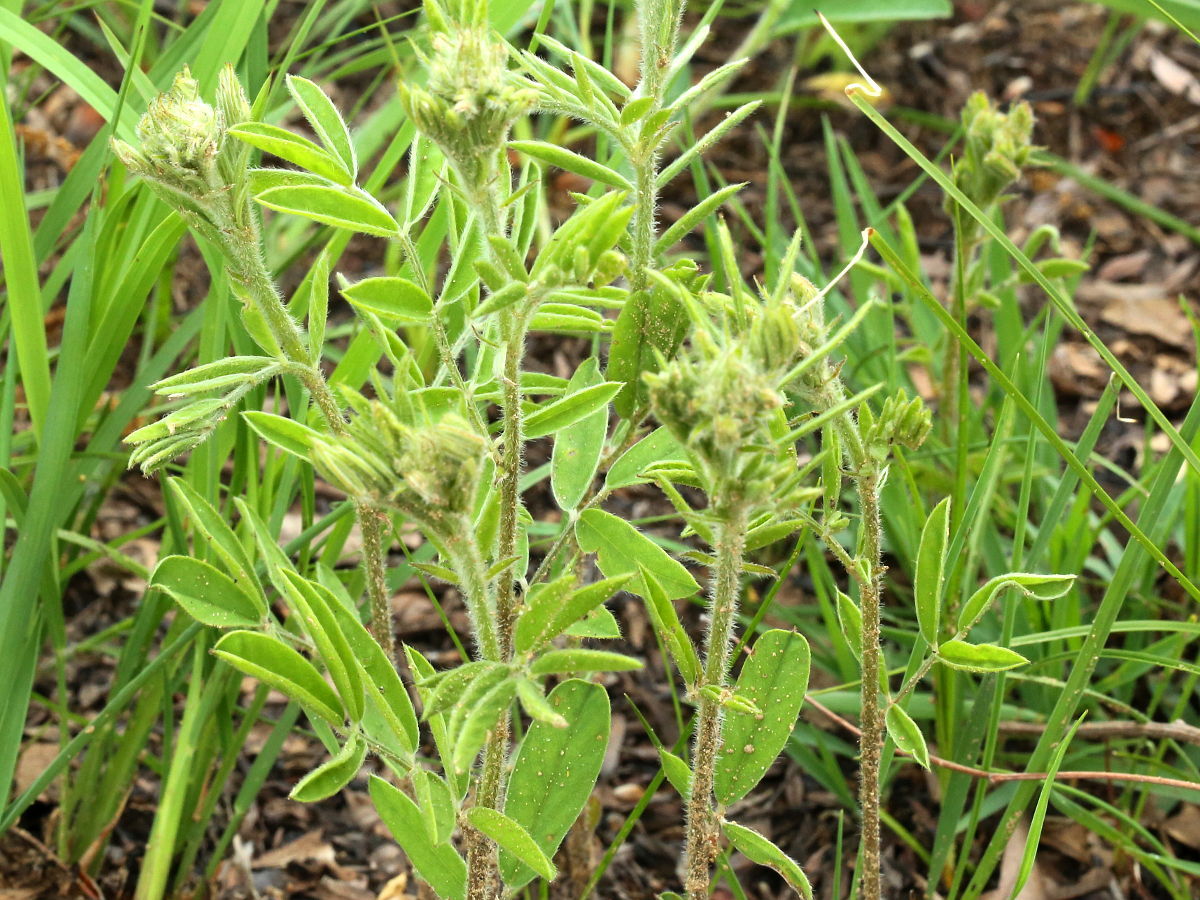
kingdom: Plantae
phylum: Tracheophyta
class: Magnoliopsida
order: Fabales
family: Fabaceae
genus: Tephrosia
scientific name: Tephrosia virginiana
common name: Rabbit-pea
